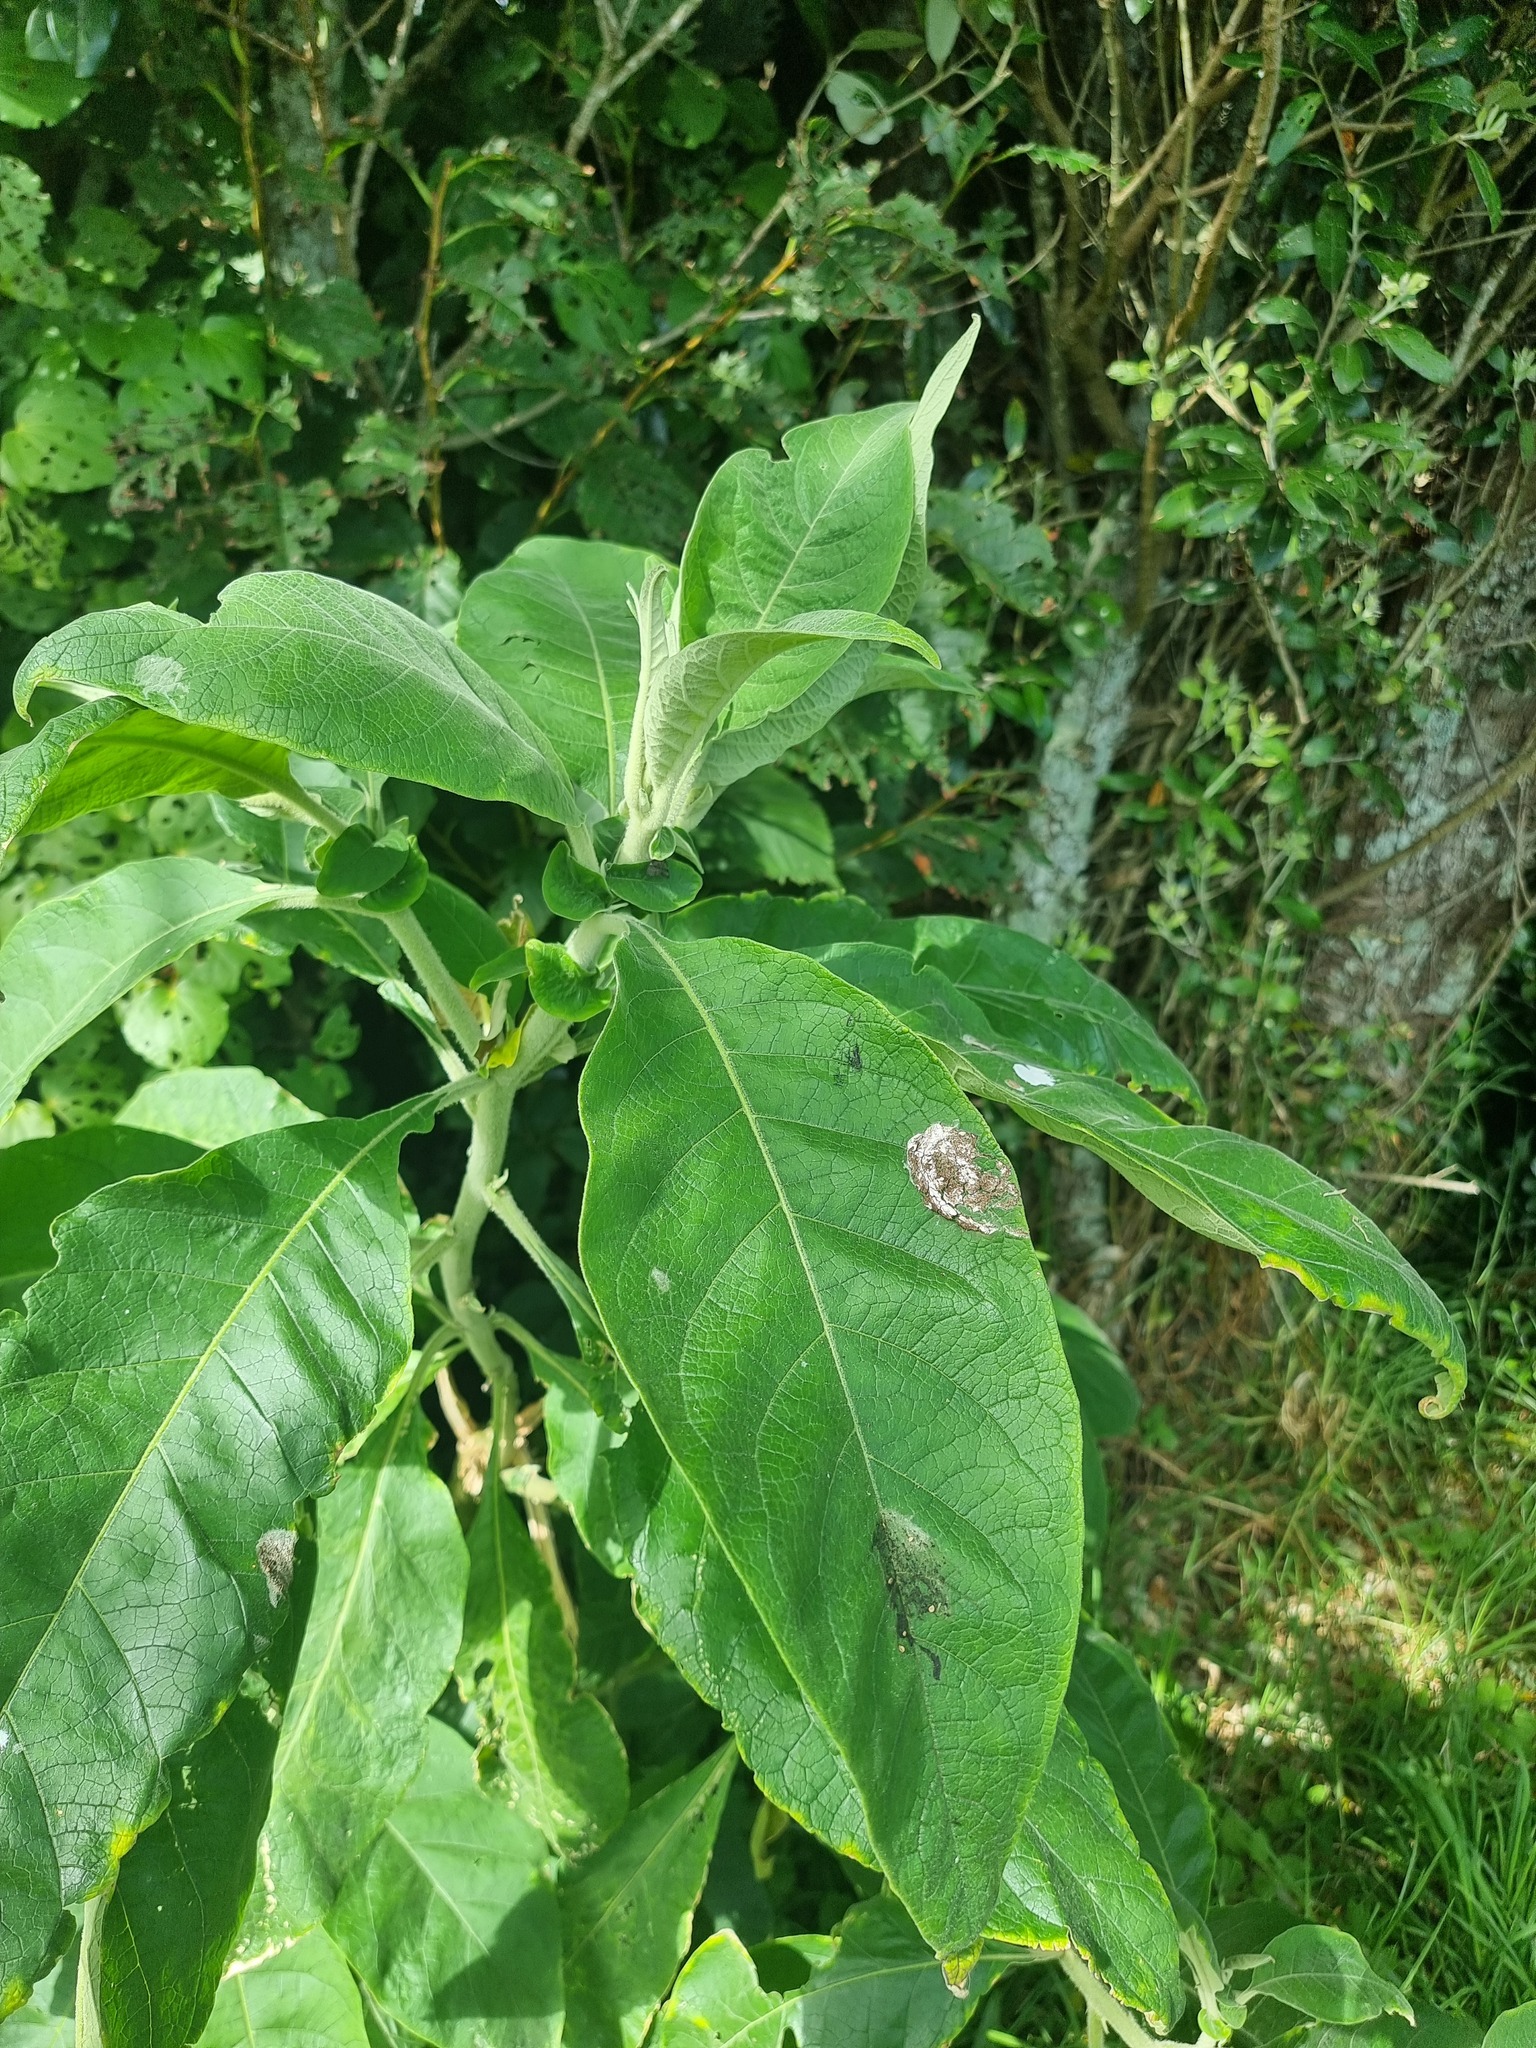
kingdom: Plantae
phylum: Tracheophyta
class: Magnoliopsida
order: Solanales
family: Solanaceae
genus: Solanum
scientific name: Solanum mauritianum
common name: Earleaf nightshade
